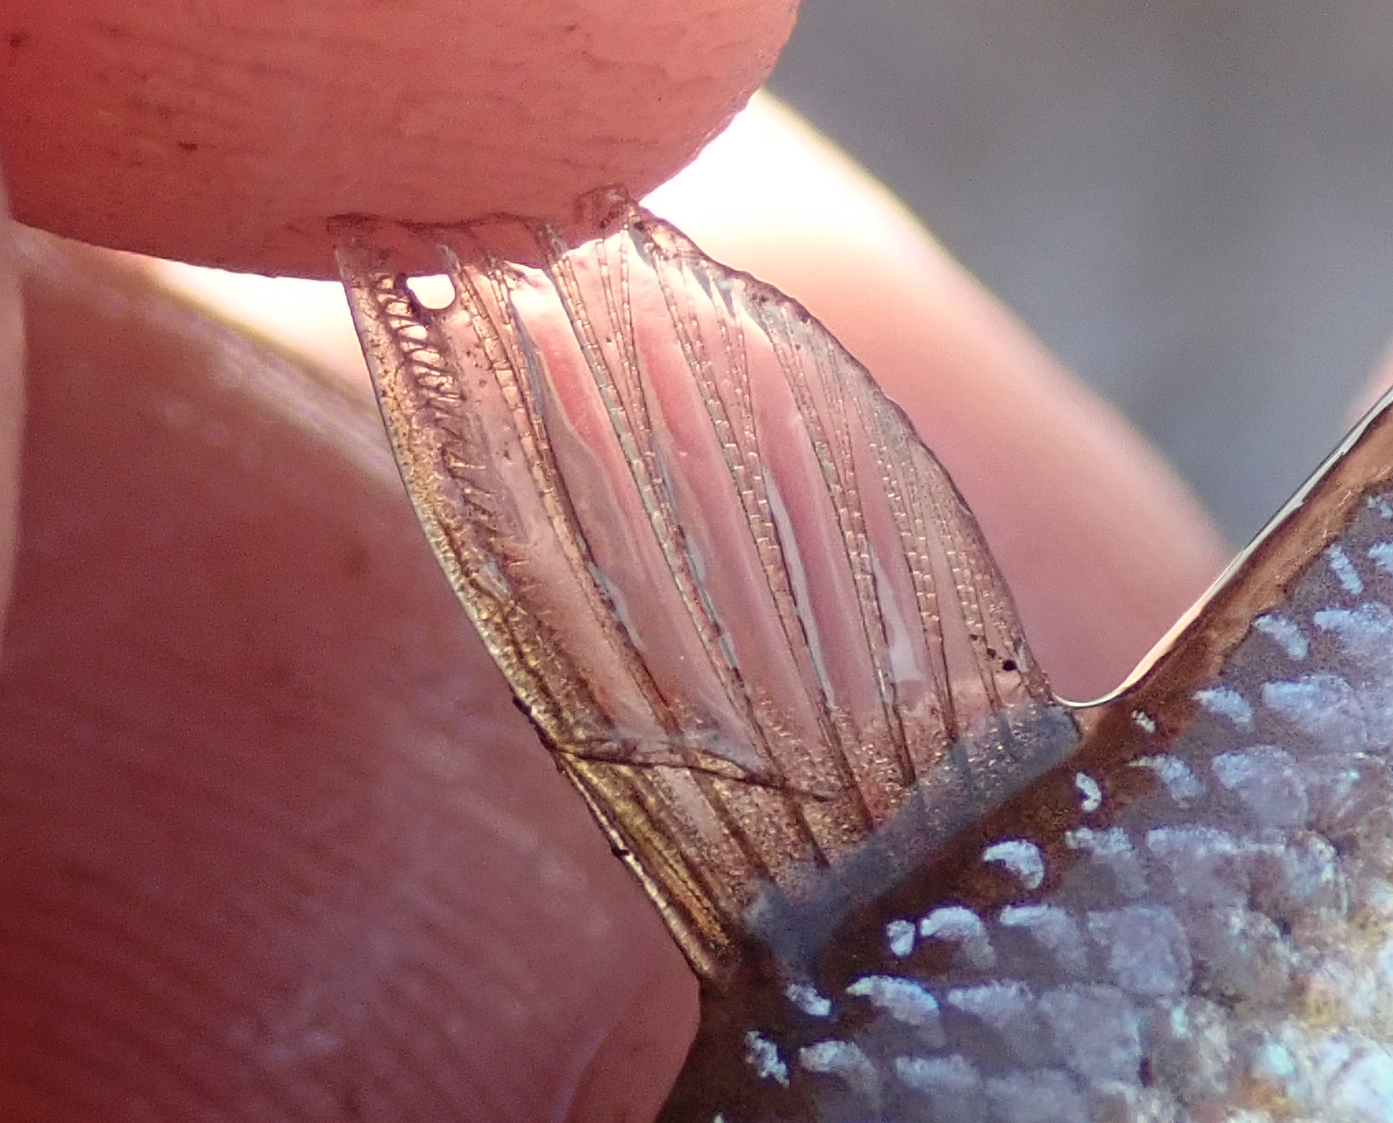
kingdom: Animalia
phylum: Chordata
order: Cypriniformes
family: Cyprinidae
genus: Enteromius
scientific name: Enteromius paludinosus
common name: Straightfin barb
